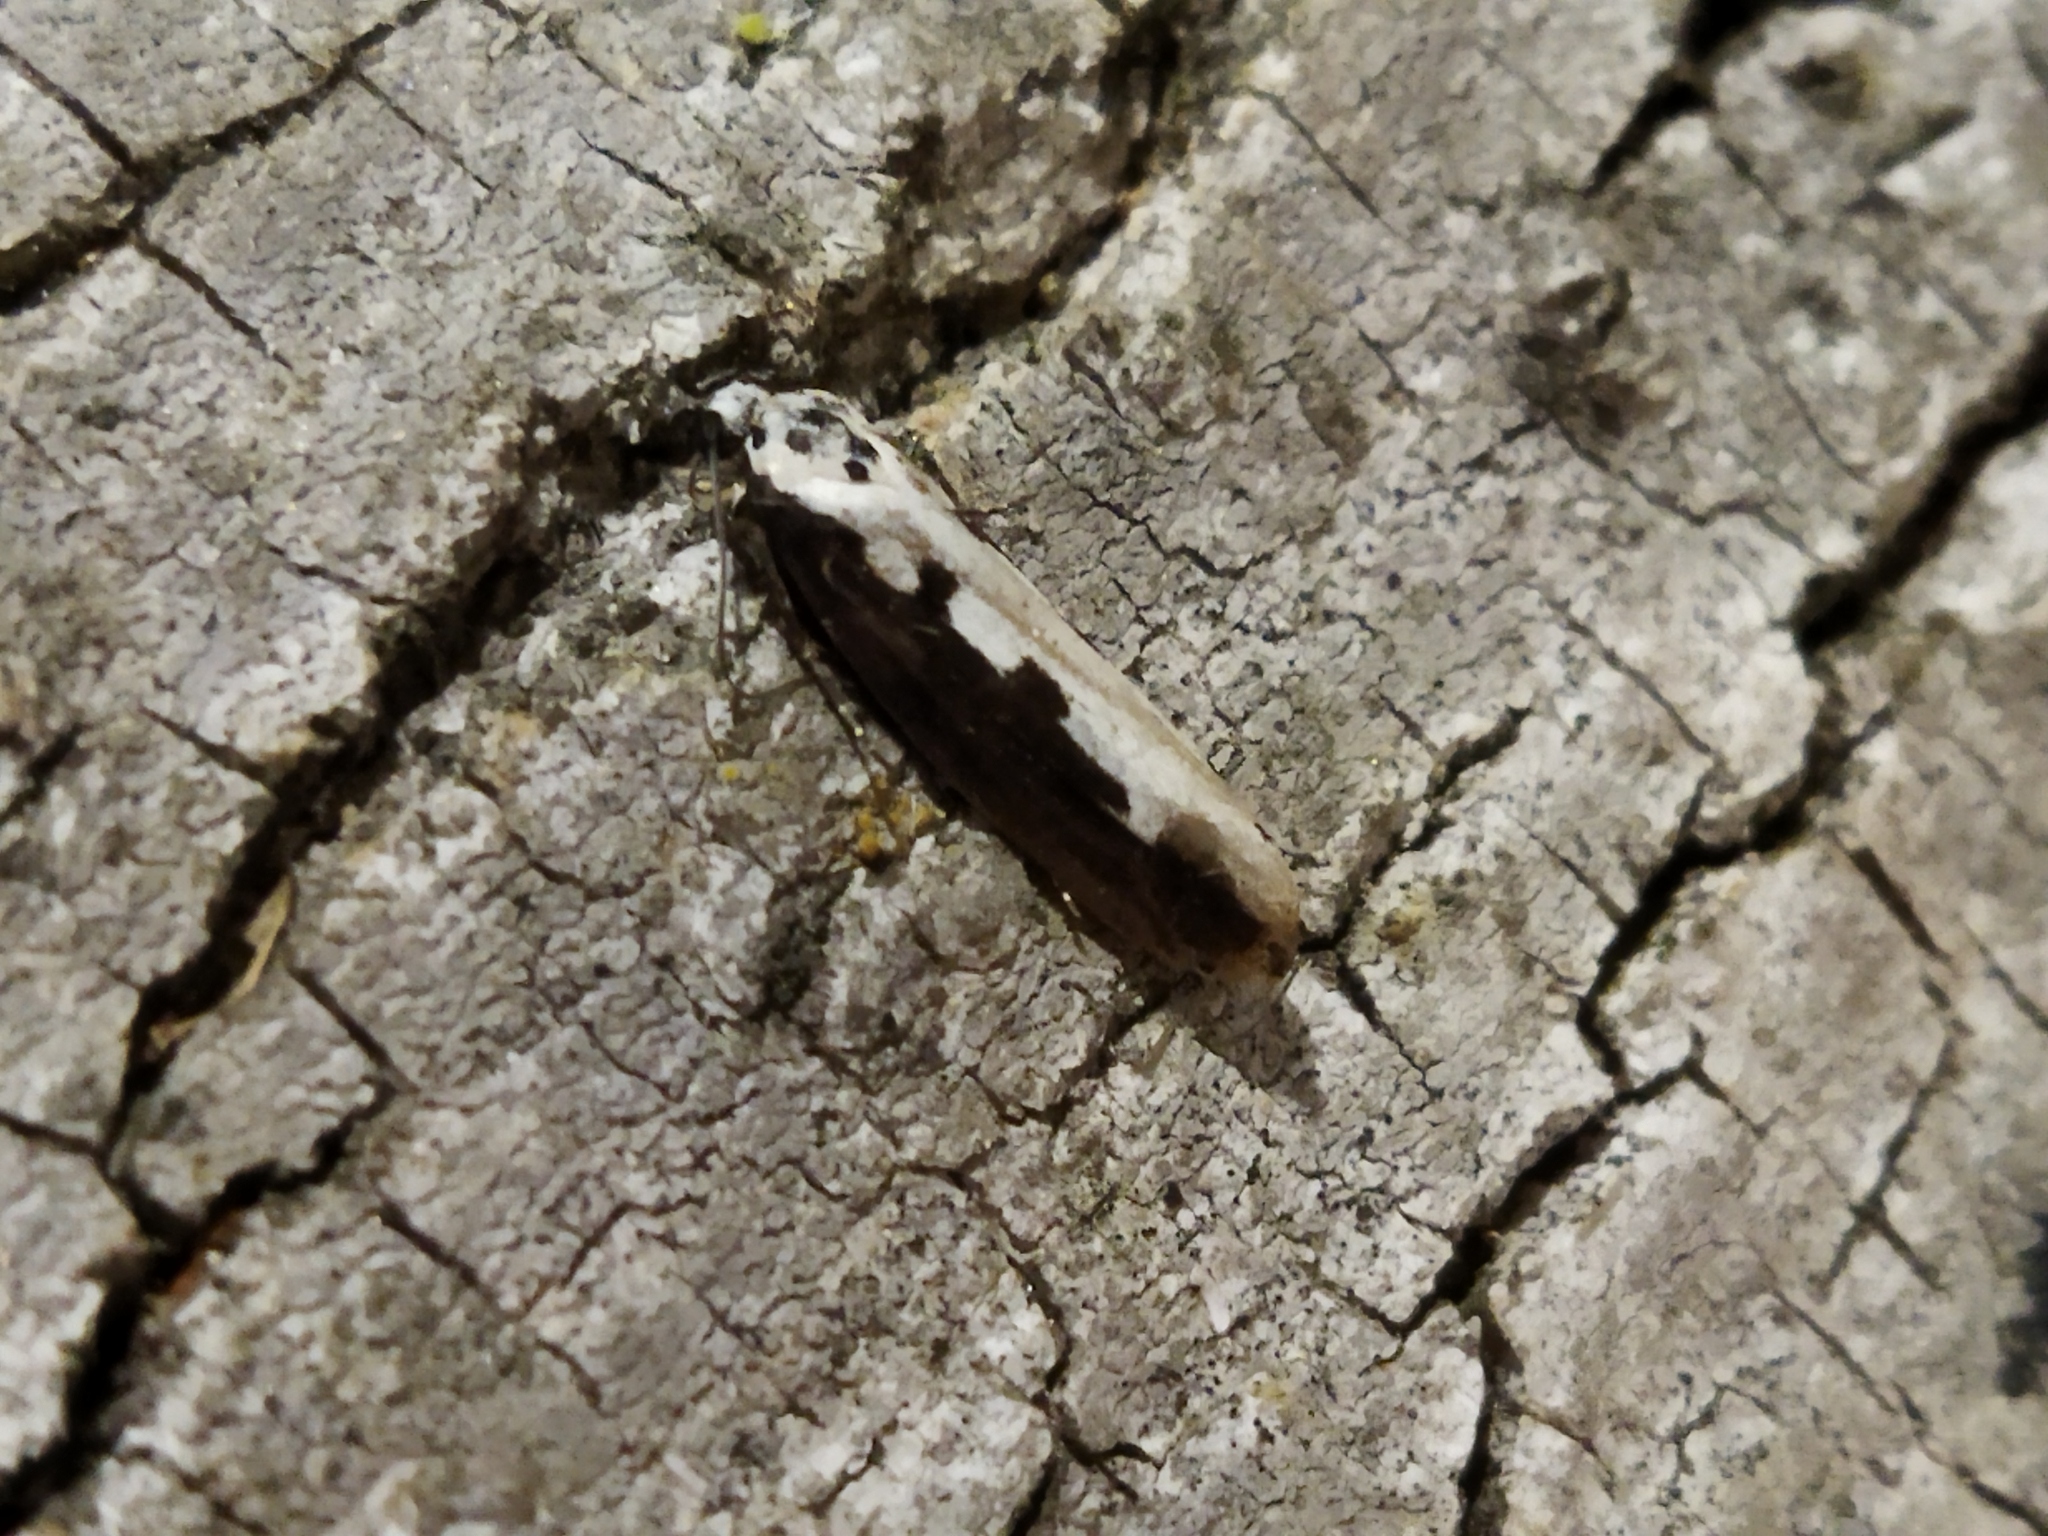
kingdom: Animalia
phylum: Arthropoda
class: Insecta
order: Lepidoptera
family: Ethmiidae
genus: Ethmia
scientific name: Ethmia bipunctella
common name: Bordered ermel
